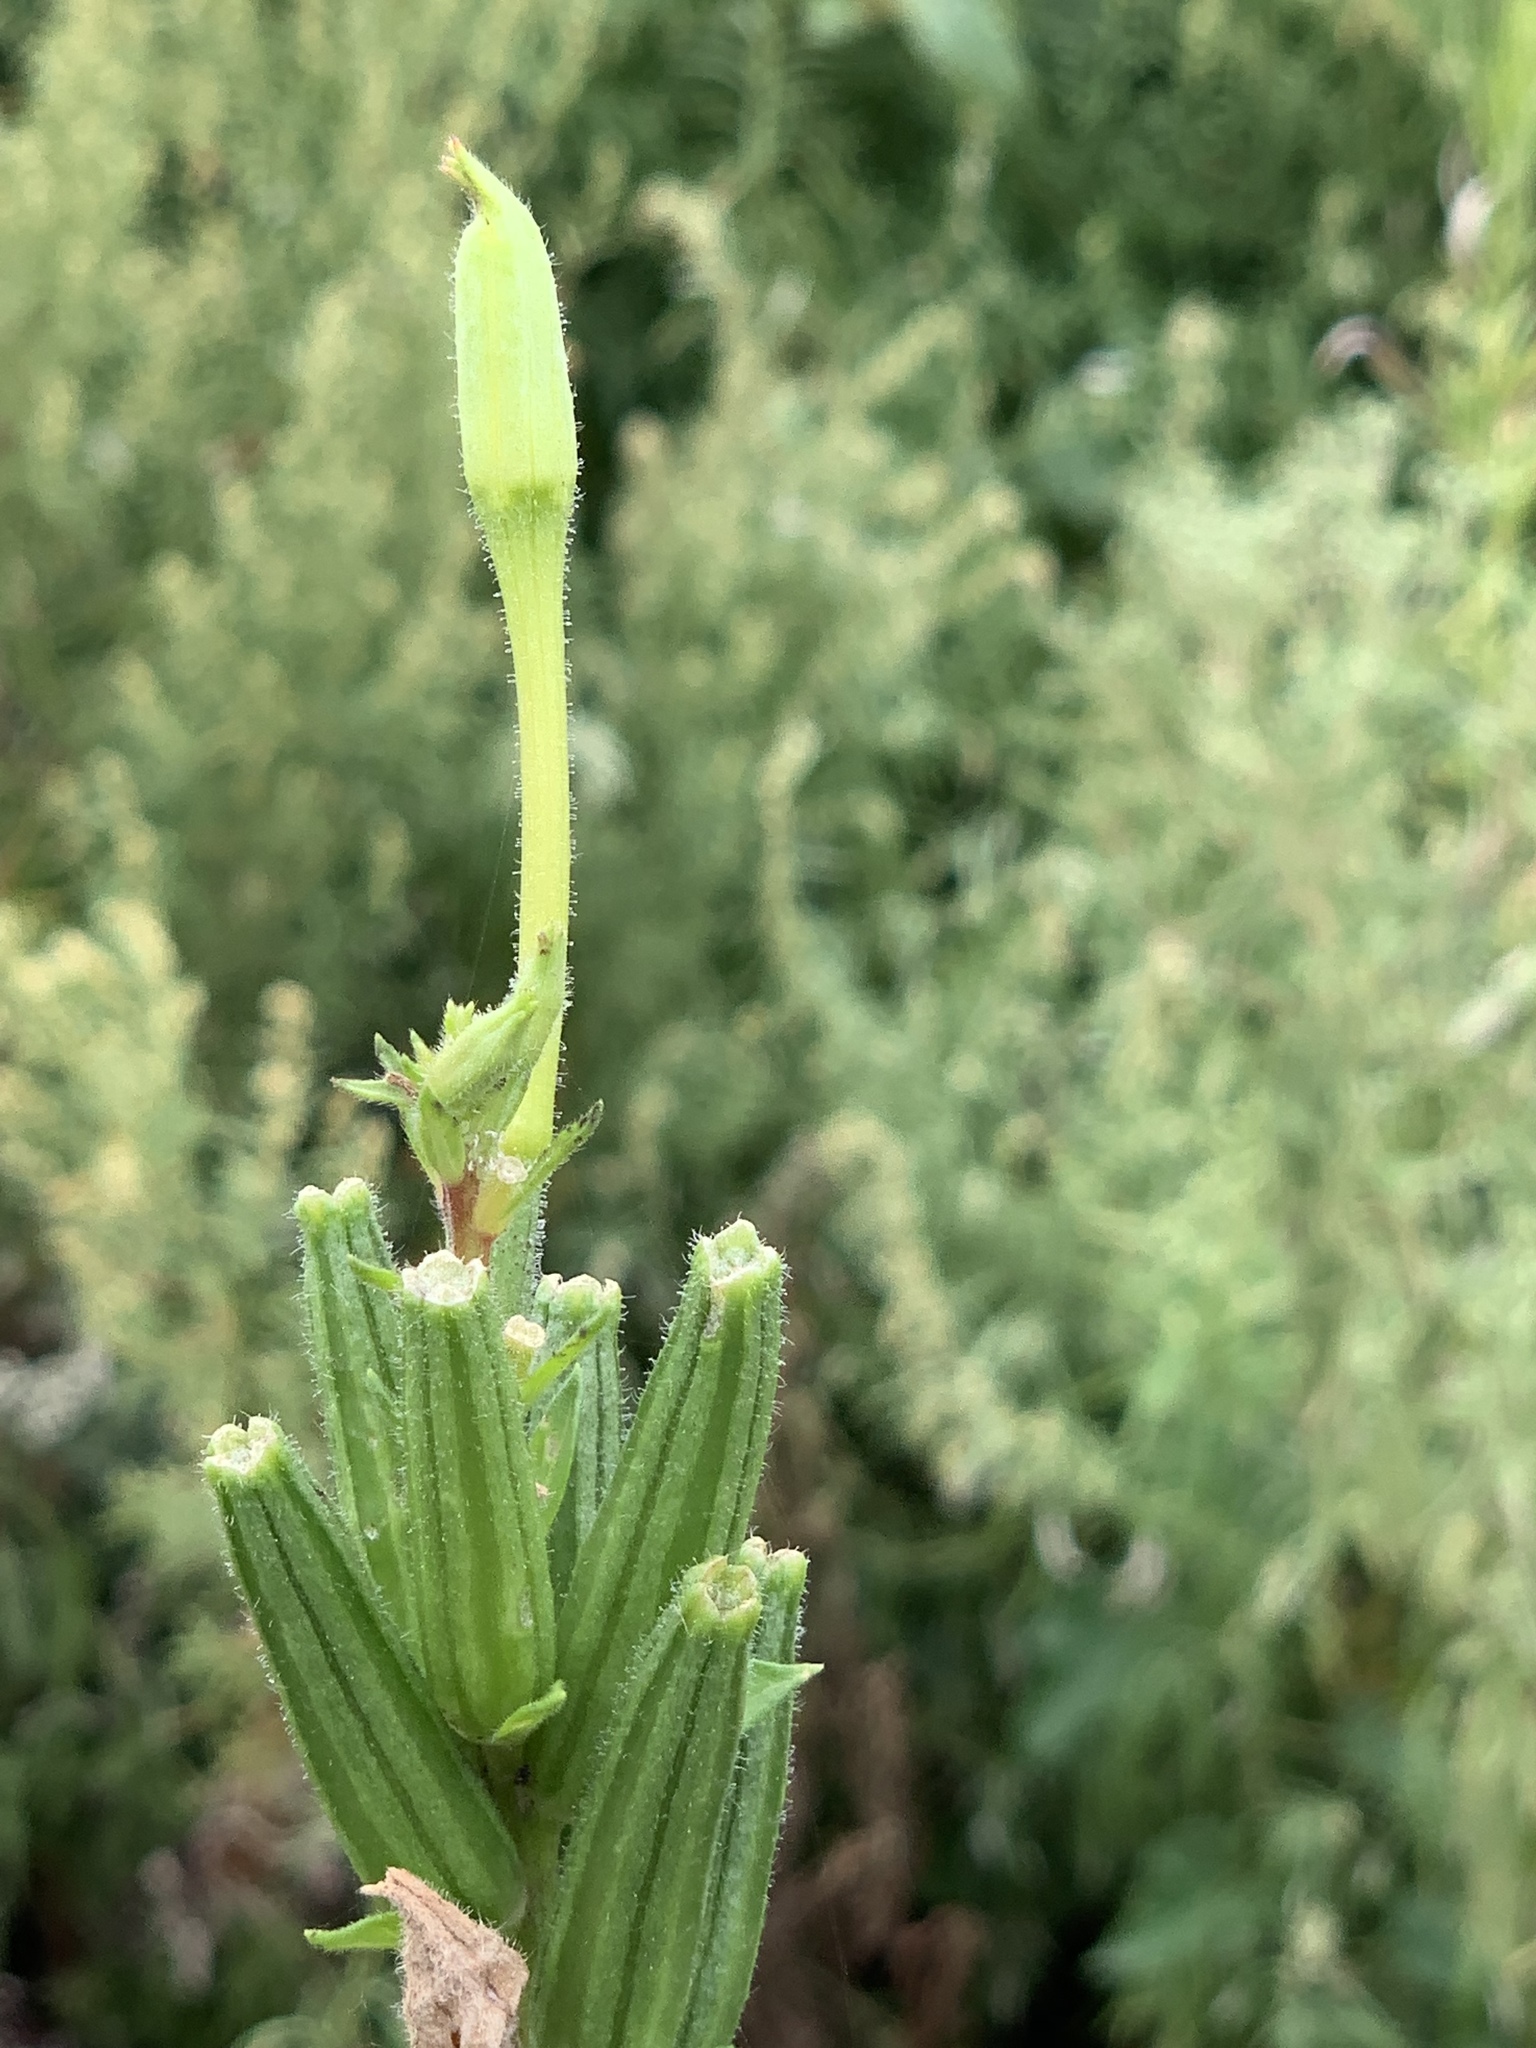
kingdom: Plantae
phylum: Tracheophyta
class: Magnoliopsida
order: Myrtales
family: Onagraceae
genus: Oenothera
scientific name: Oenothera biennis
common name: Common evening-primrose
